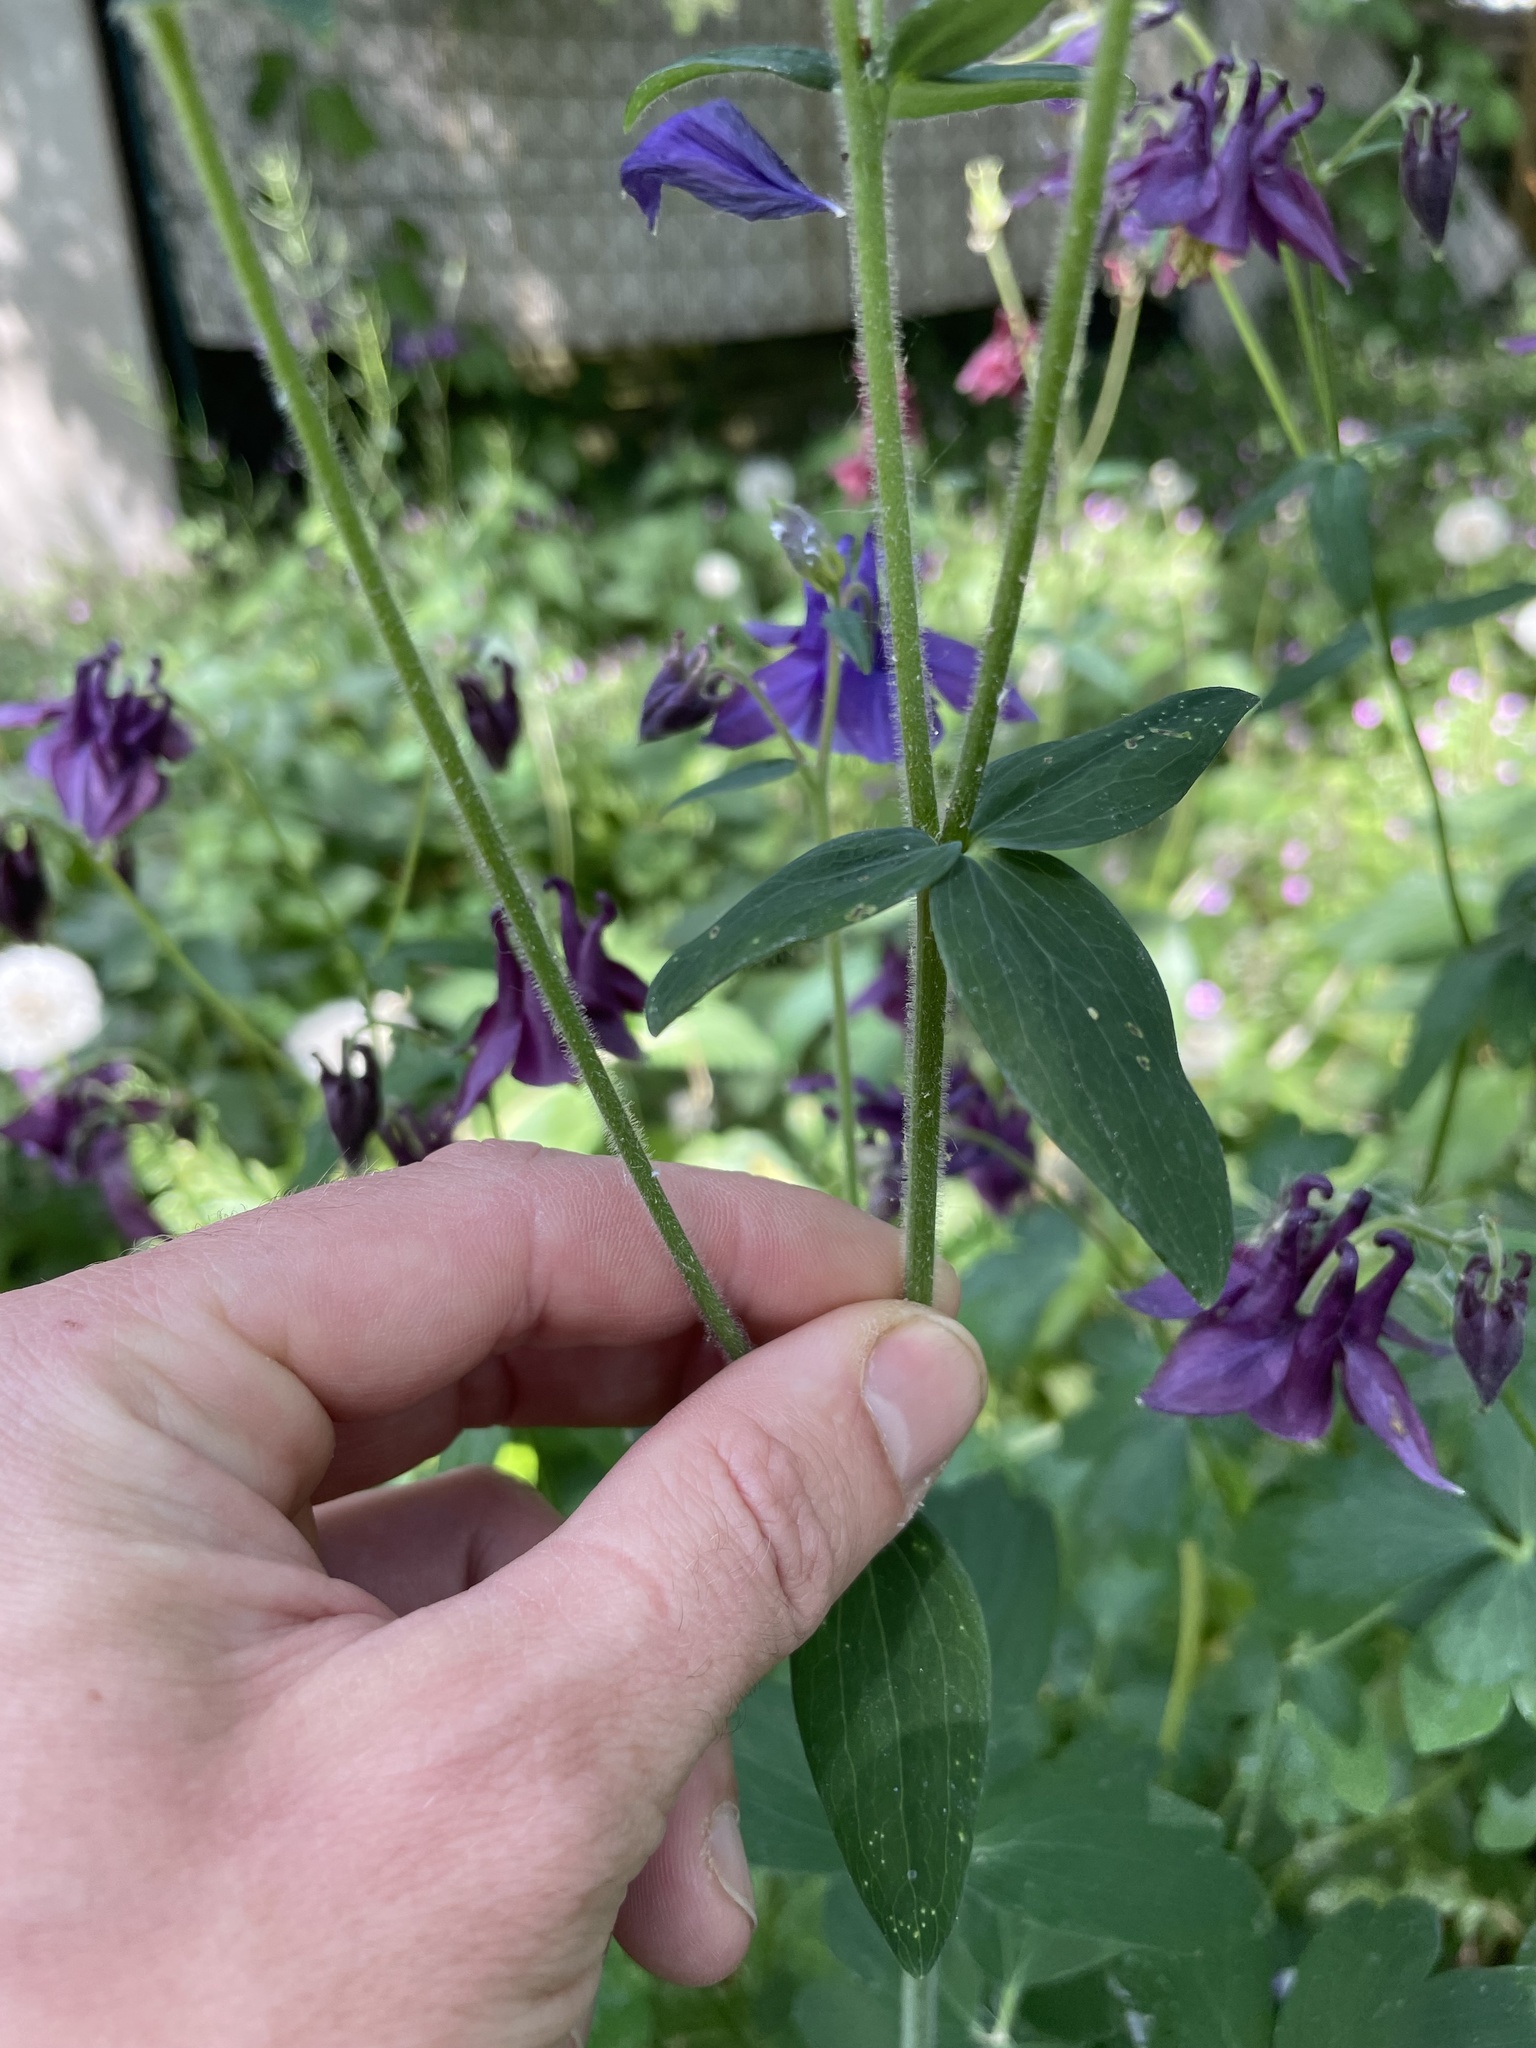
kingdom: Plantae
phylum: Tracheophyta
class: Magnoliopsida
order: Ranunculales
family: Ranunculaceae
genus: Aquilegia
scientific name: Aquilegia vulgaris
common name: Columbine
